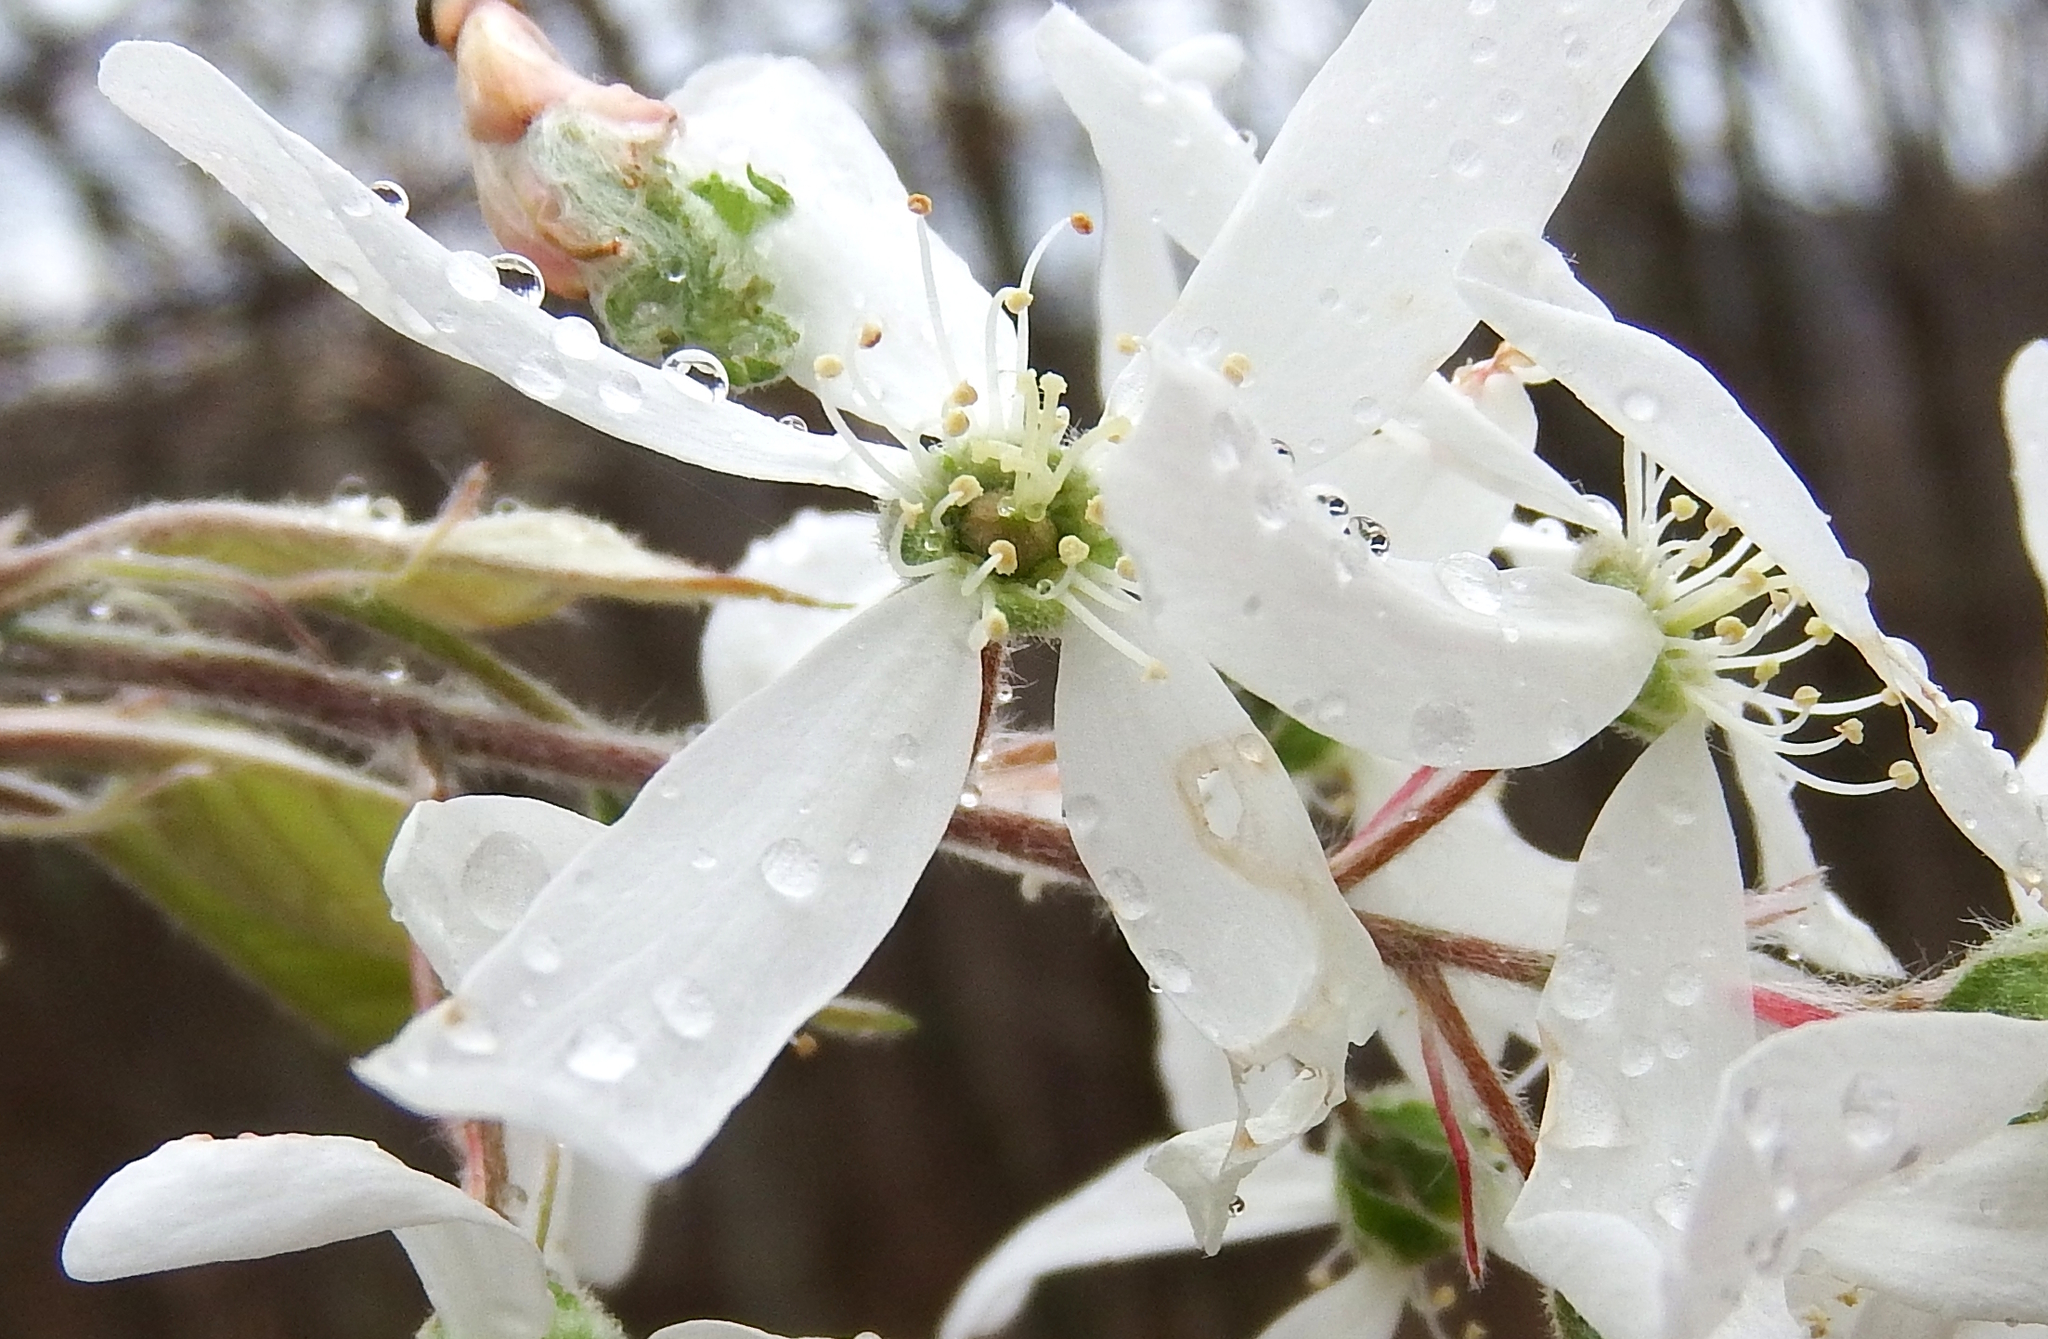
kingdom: Plantae
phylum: Tracheophyta
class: Magnoliopsida
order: Rosales
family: Rosaceae
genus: Amelanchier
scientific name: Amelanchier arborea
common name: Downy serviceberry
